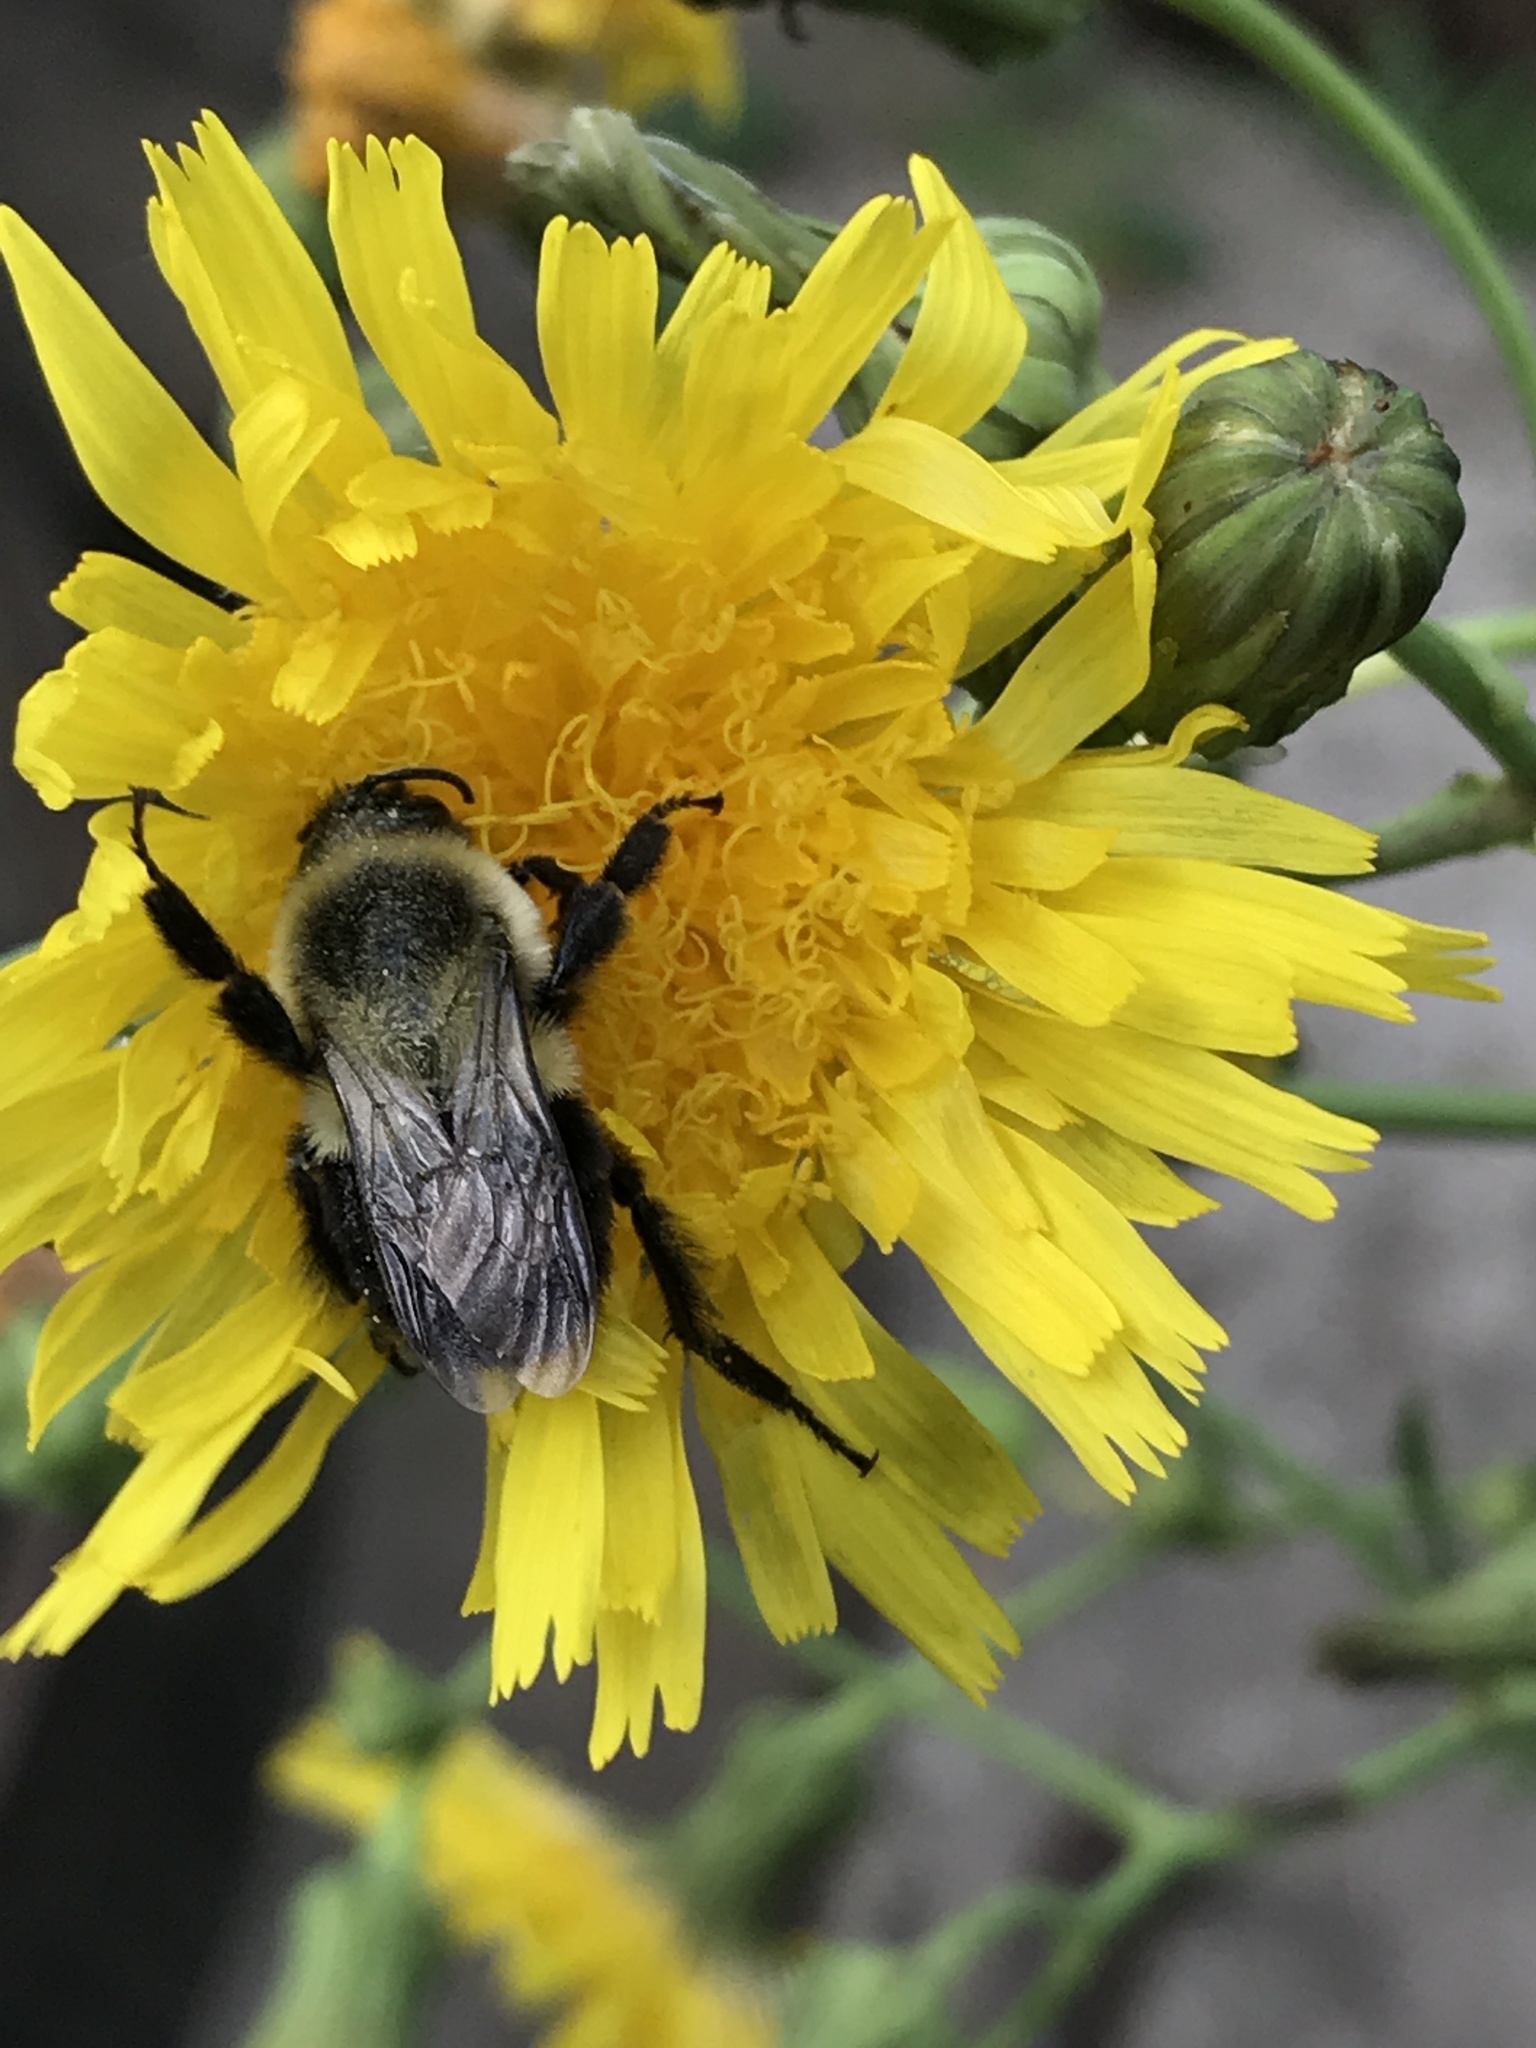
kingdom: Animalia
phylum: Arthropoda
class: Insecta
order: Hymenoptera
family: Apidae
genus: Bombus
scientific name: Bombus impatiens
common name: Common eastern bumble bee
